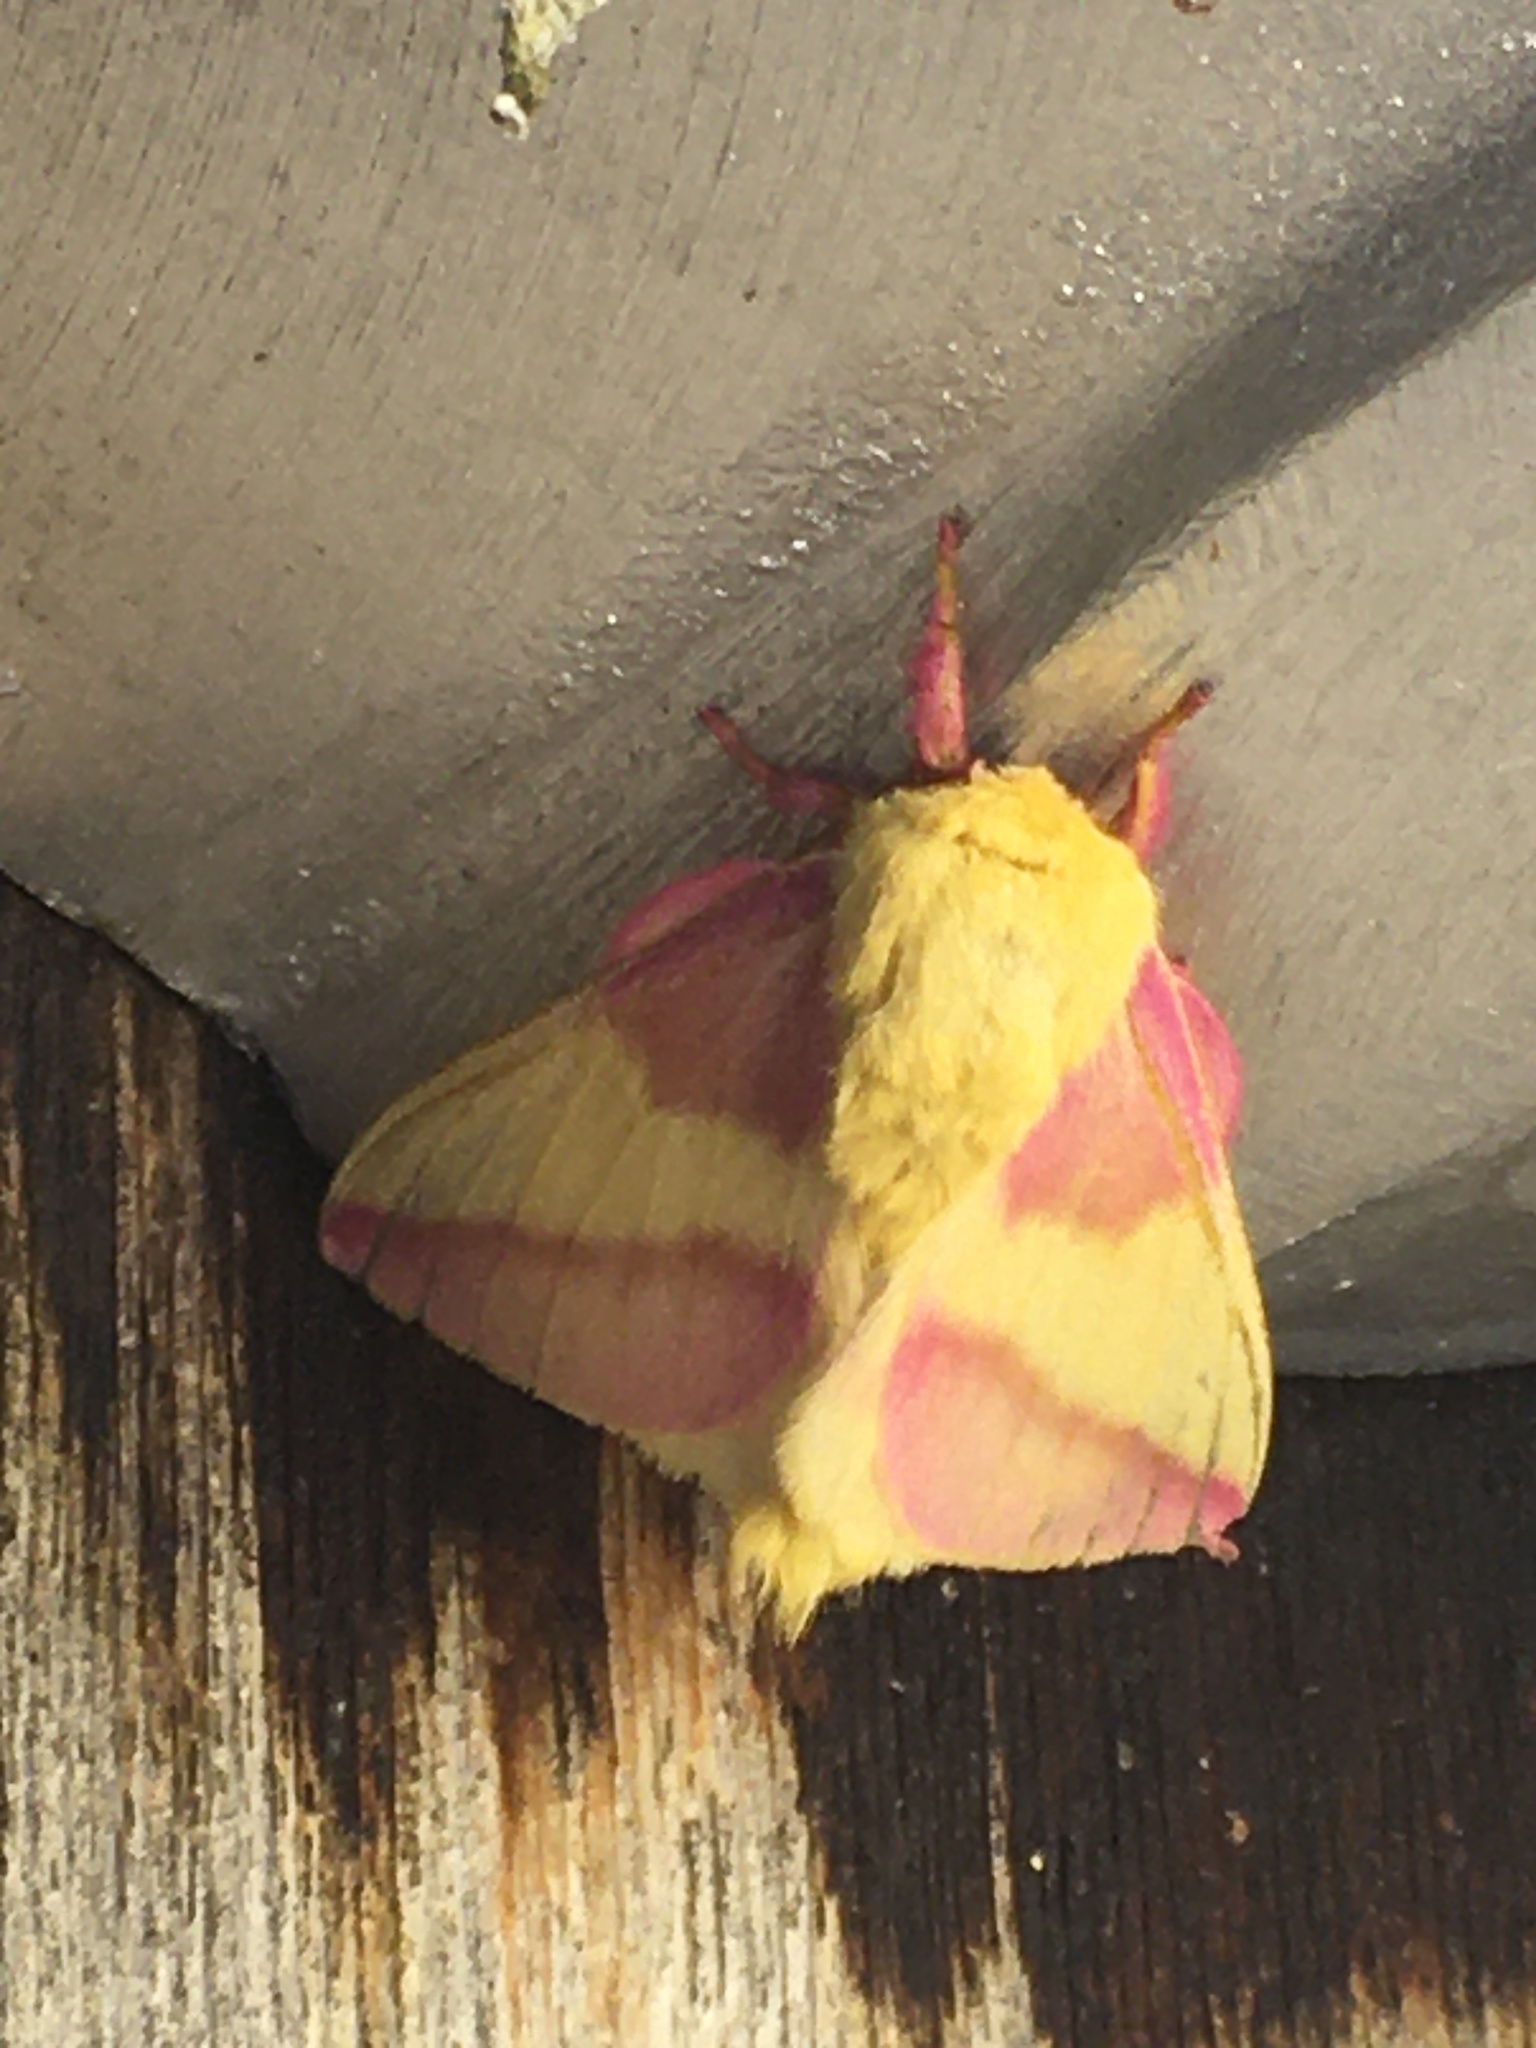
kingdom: Animalia
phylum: Arthropoda
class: Insecta
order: Lepidoptera
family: Saturniidae
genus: Dryocampa
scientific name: Dryocampa rubicunda
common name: Rosy maple moth
